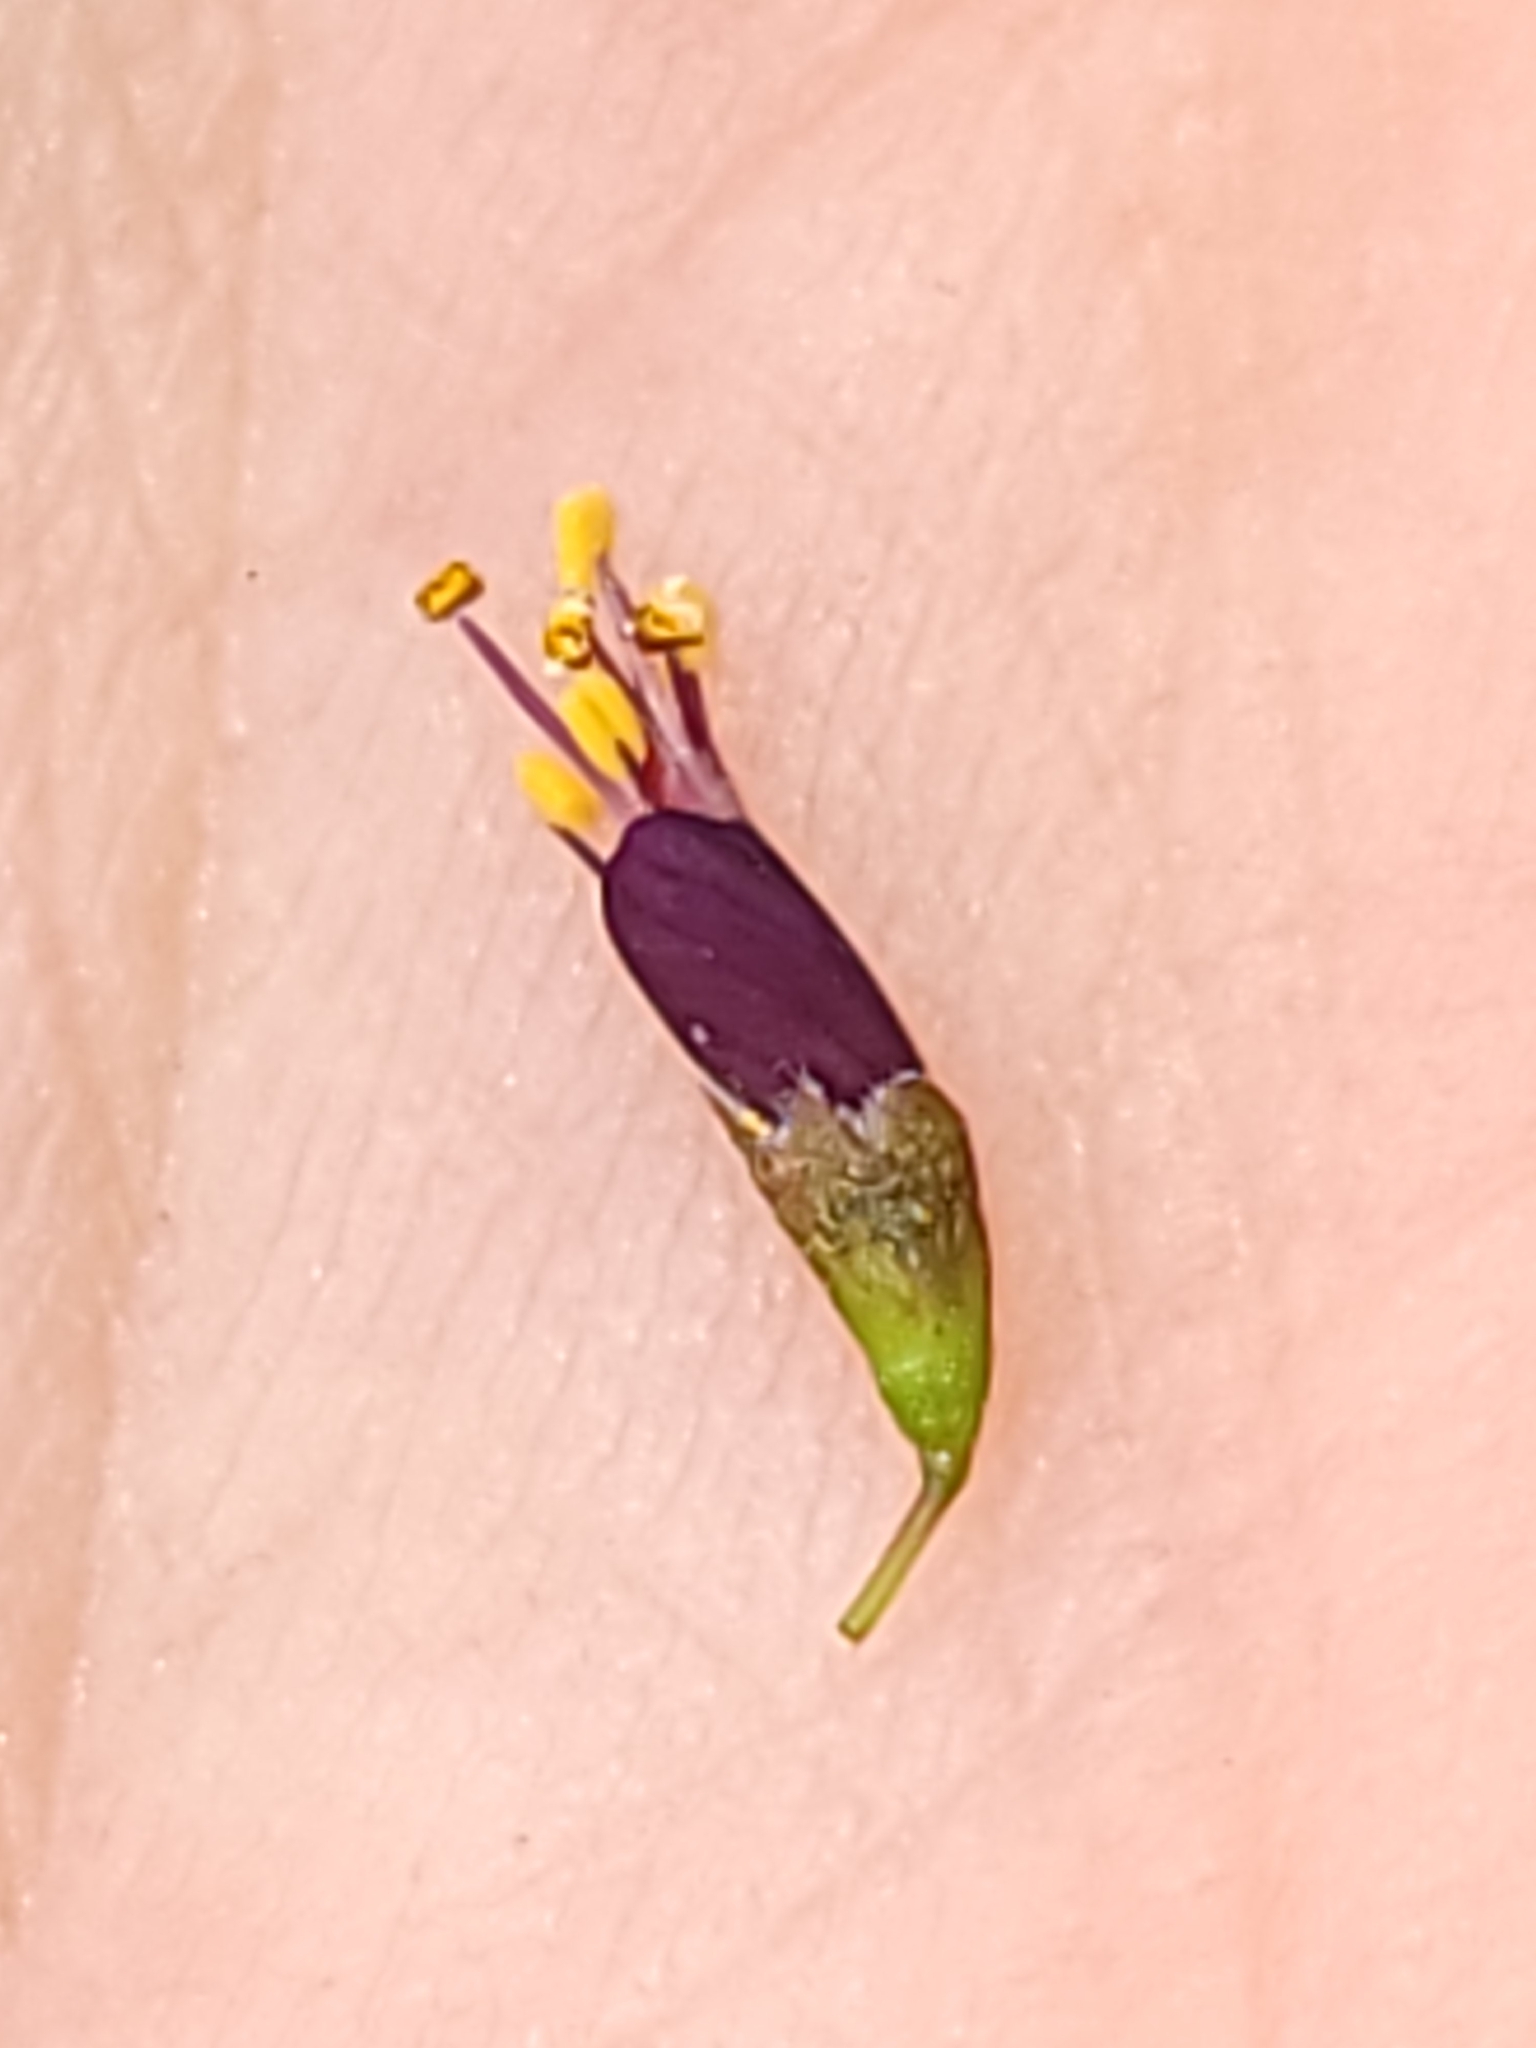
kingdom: Plantae
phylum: Tracheophyta
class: Magnoliopsida
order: Fabales
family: Fabaceae
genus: Amorpha
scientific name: Amorpha fruticosa
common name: False indigo
